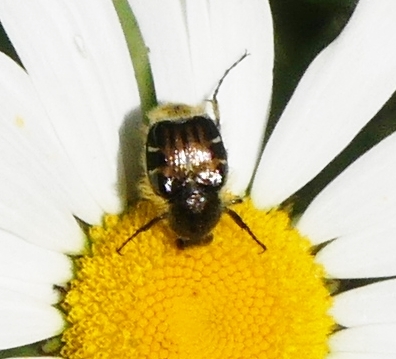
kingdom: Animalia
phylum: Arthropoda
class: Insecta
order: Coleoptera
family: Scarabaeidae
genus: Trichiotinus
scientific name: Trichiotinus affinis
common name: Hairy flower scarab
